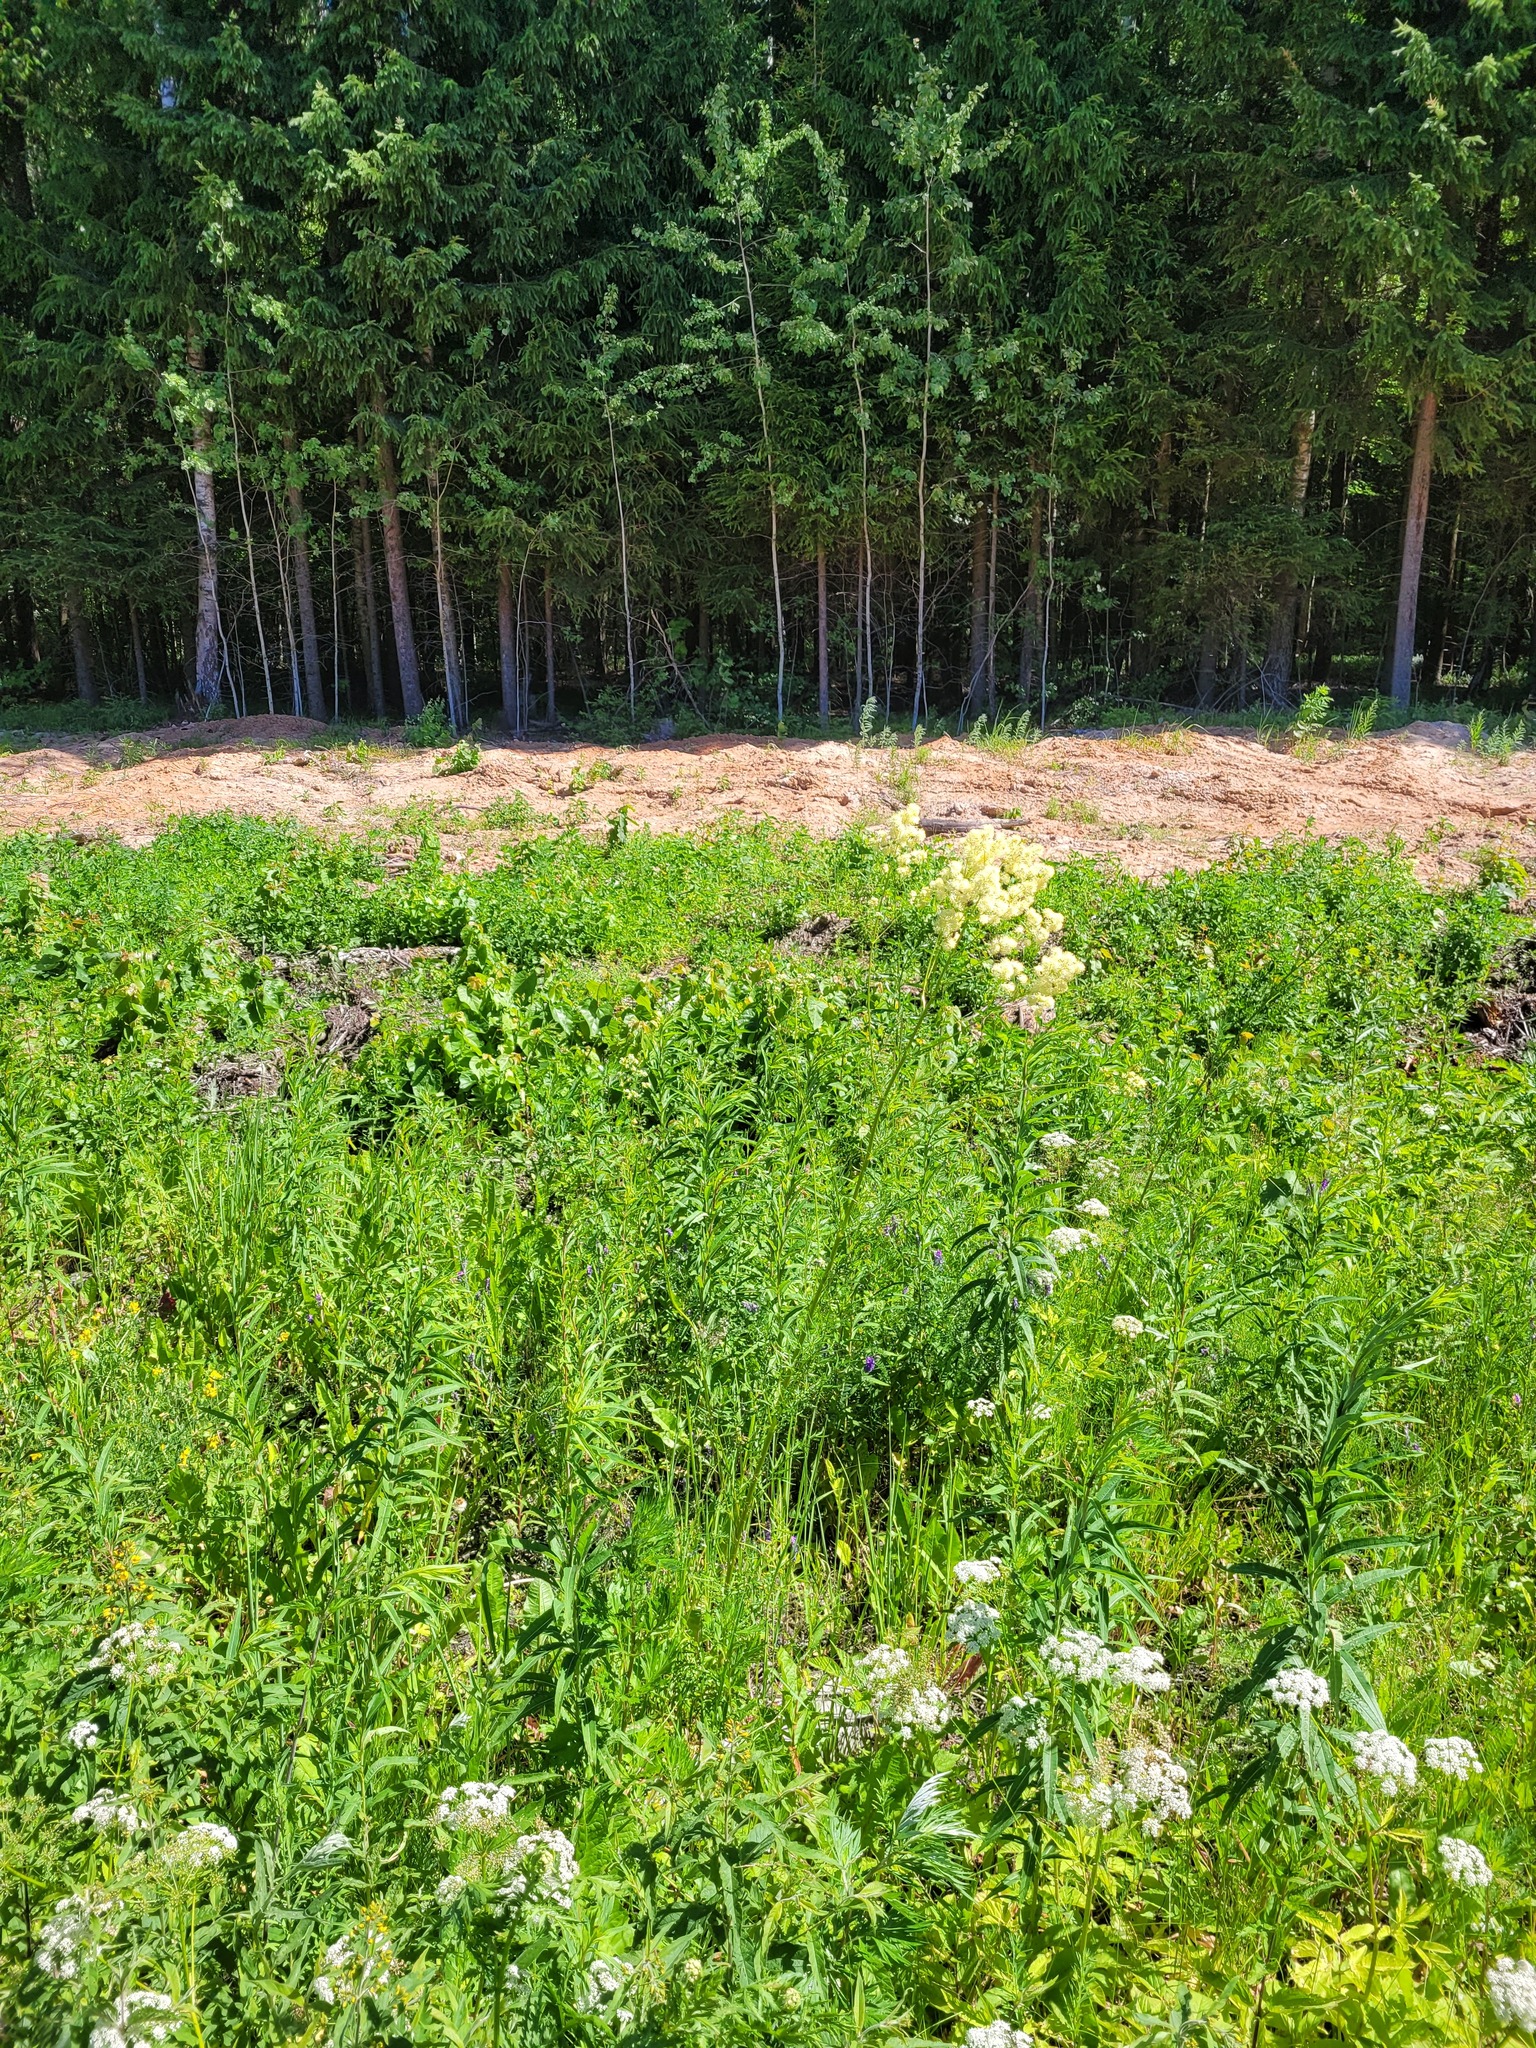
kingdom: Plantae
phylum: Tracheophyta
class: Magnoliopsida
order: Ranunculales
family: Ranunculaceae
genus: Thalictrum
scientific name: Thalictrum lucidum
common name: Shining meadow-rue
